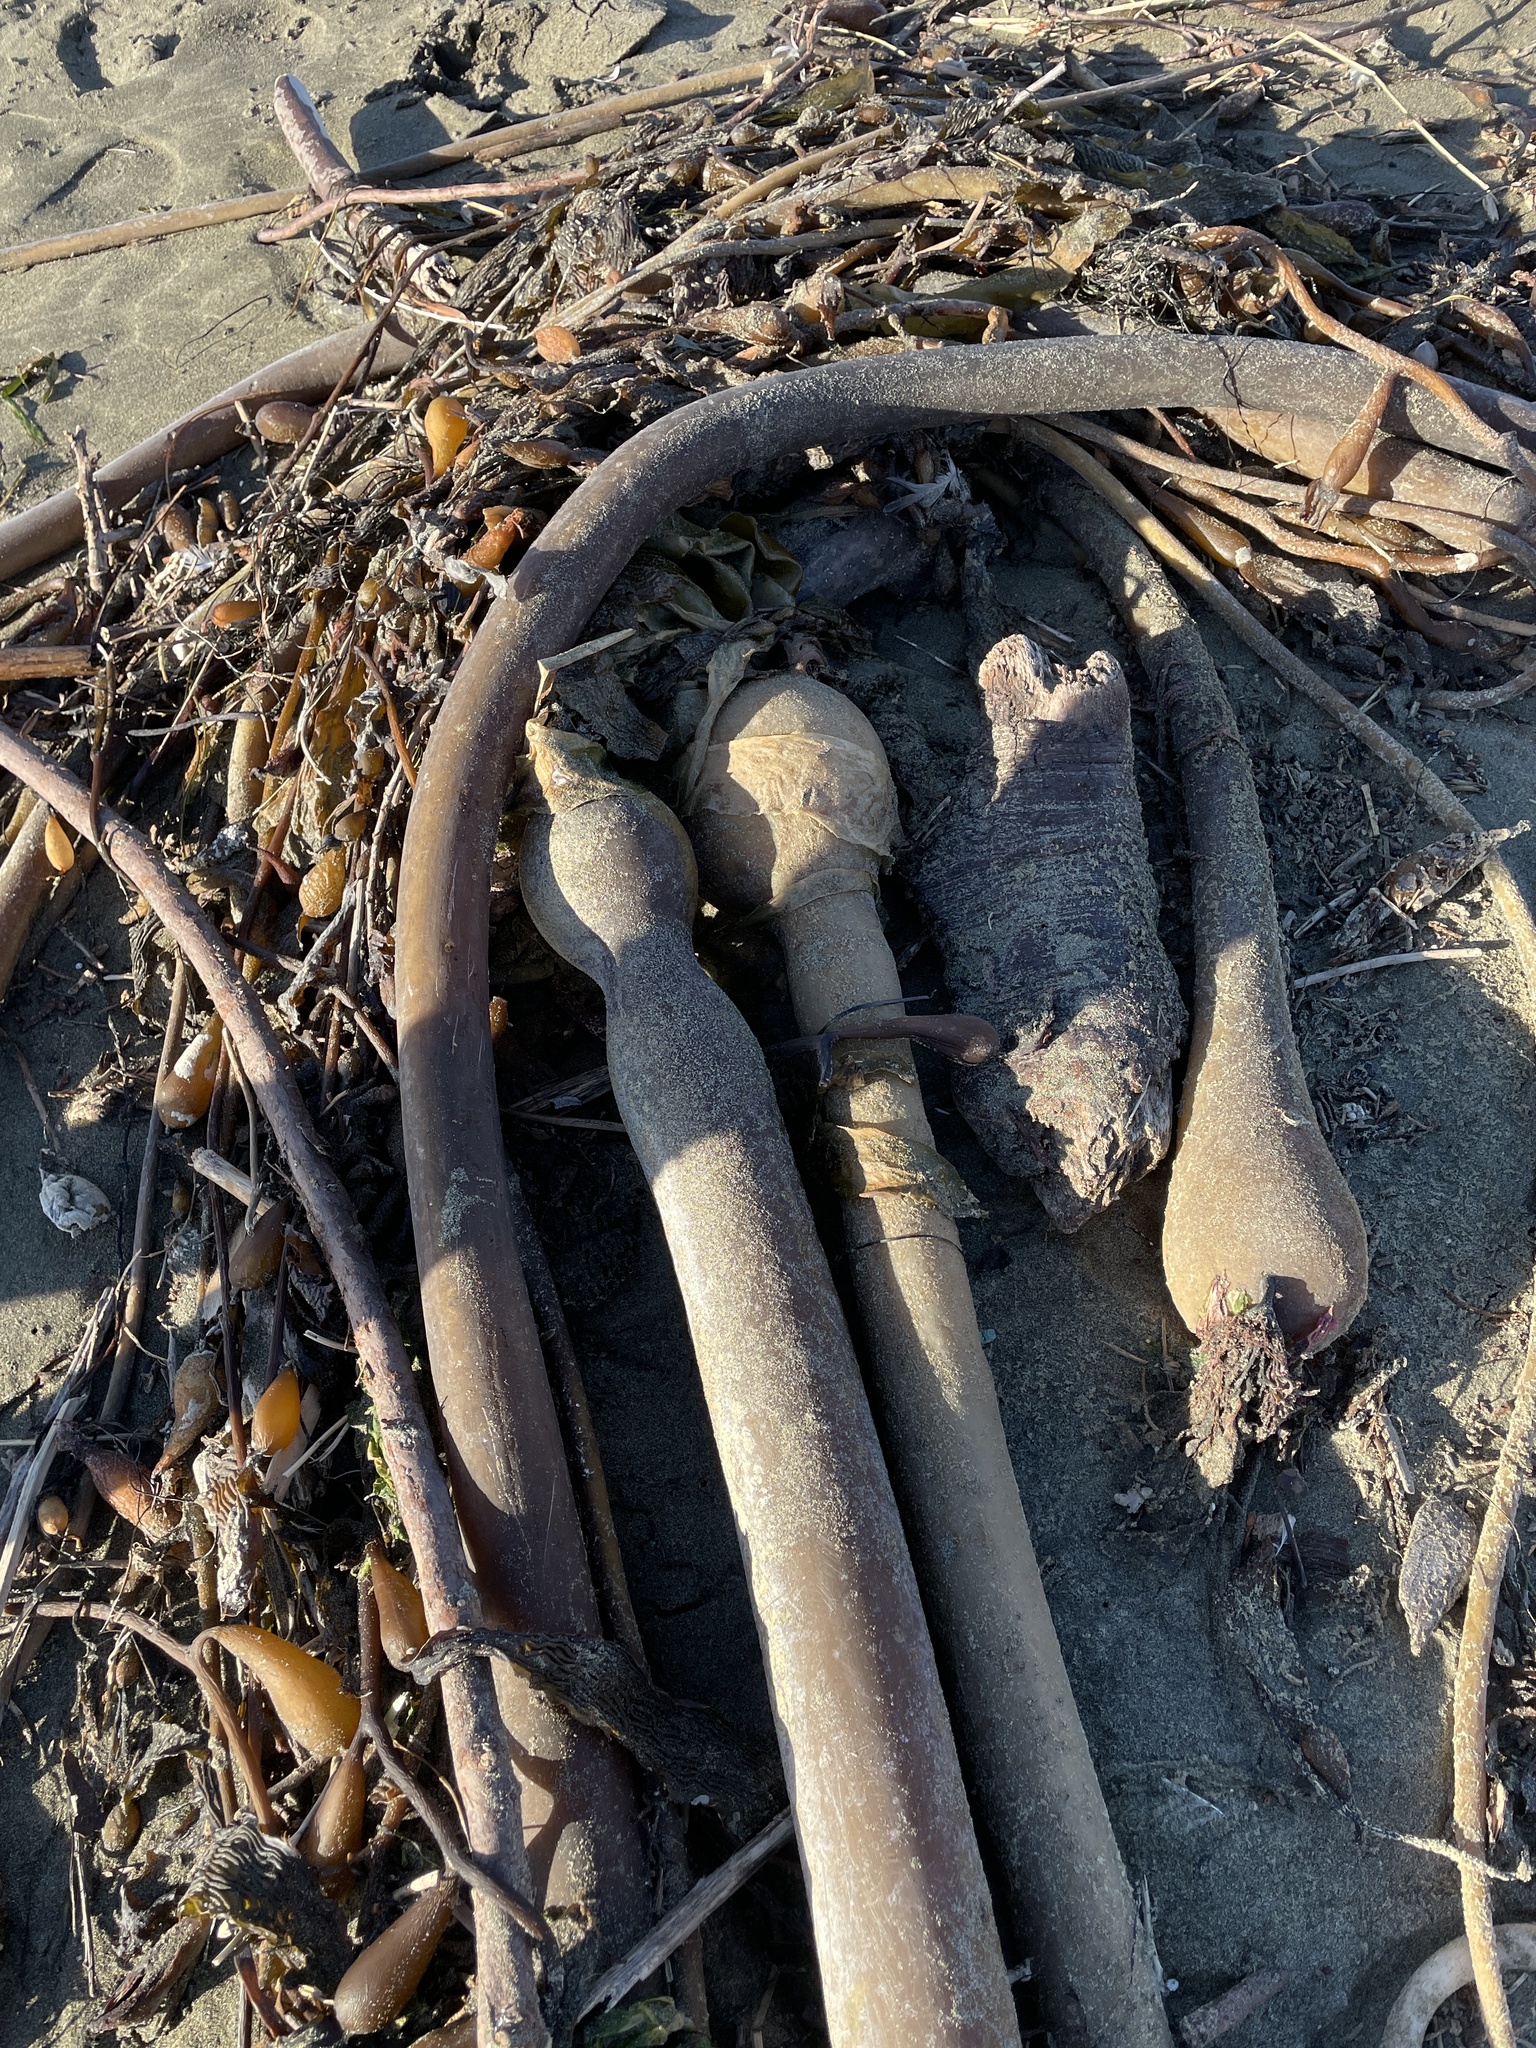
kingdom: Chromista
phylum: Ochrophyta
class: Phaeophyceae
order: Laminariales
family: Laminariaceae
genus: Nereocystis
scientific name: Nereocystis luetkeana
